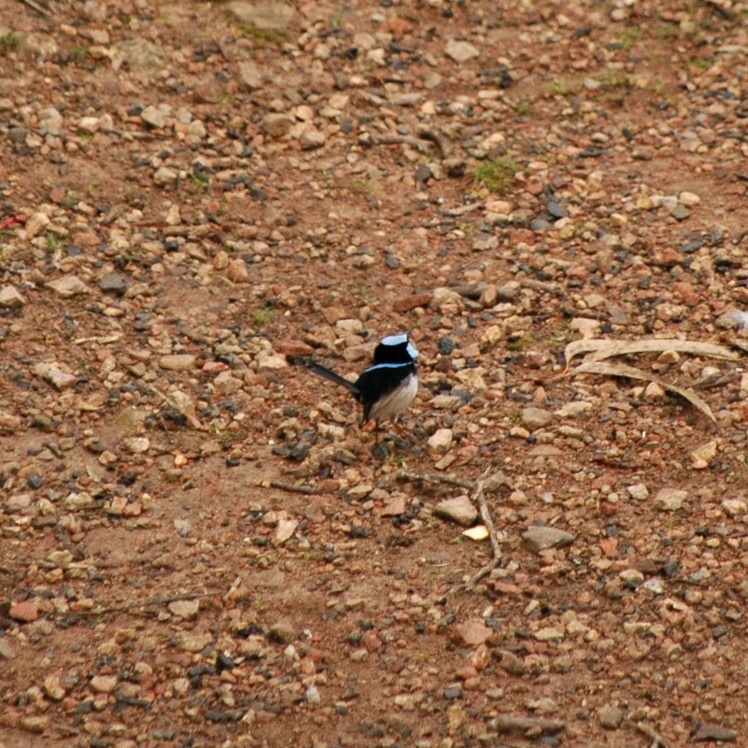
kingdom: Animalia
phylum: Chordata
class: Aves
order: Passeriformes
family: Maluridae
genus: Malurus
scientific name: Malurus cyaneus
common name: Superb fairywren
